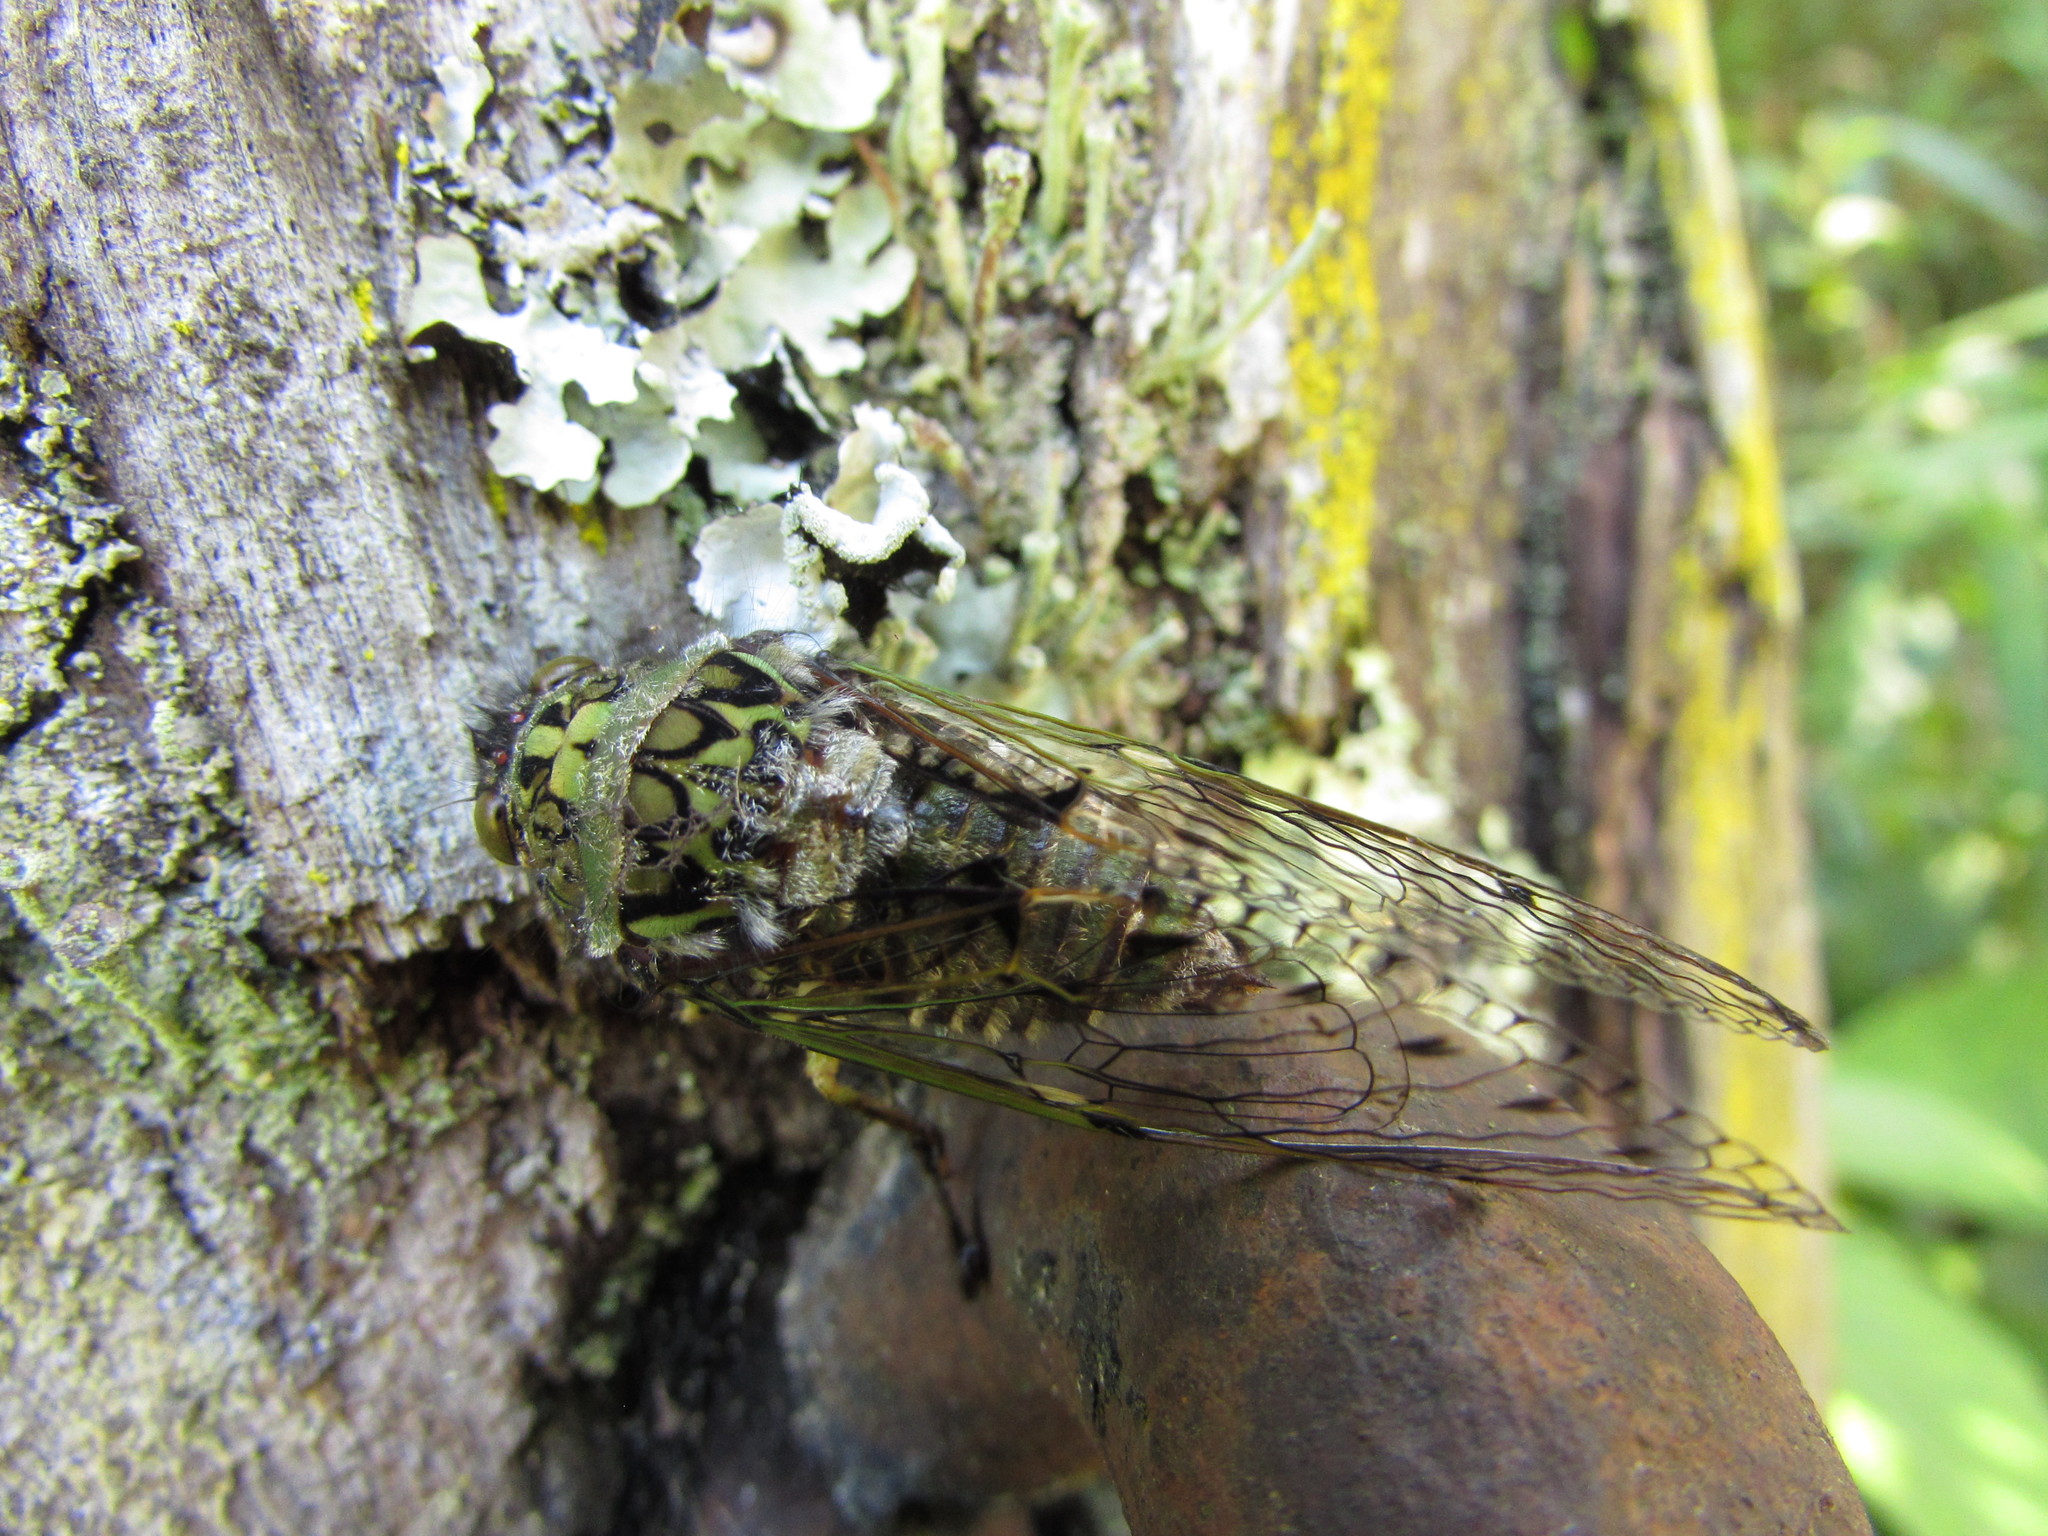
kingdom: Animalia
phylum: Arthropoda
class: Insecta
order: Hemiptera
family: Cicadidae
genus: Carineta
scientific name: Carineta trivittata
